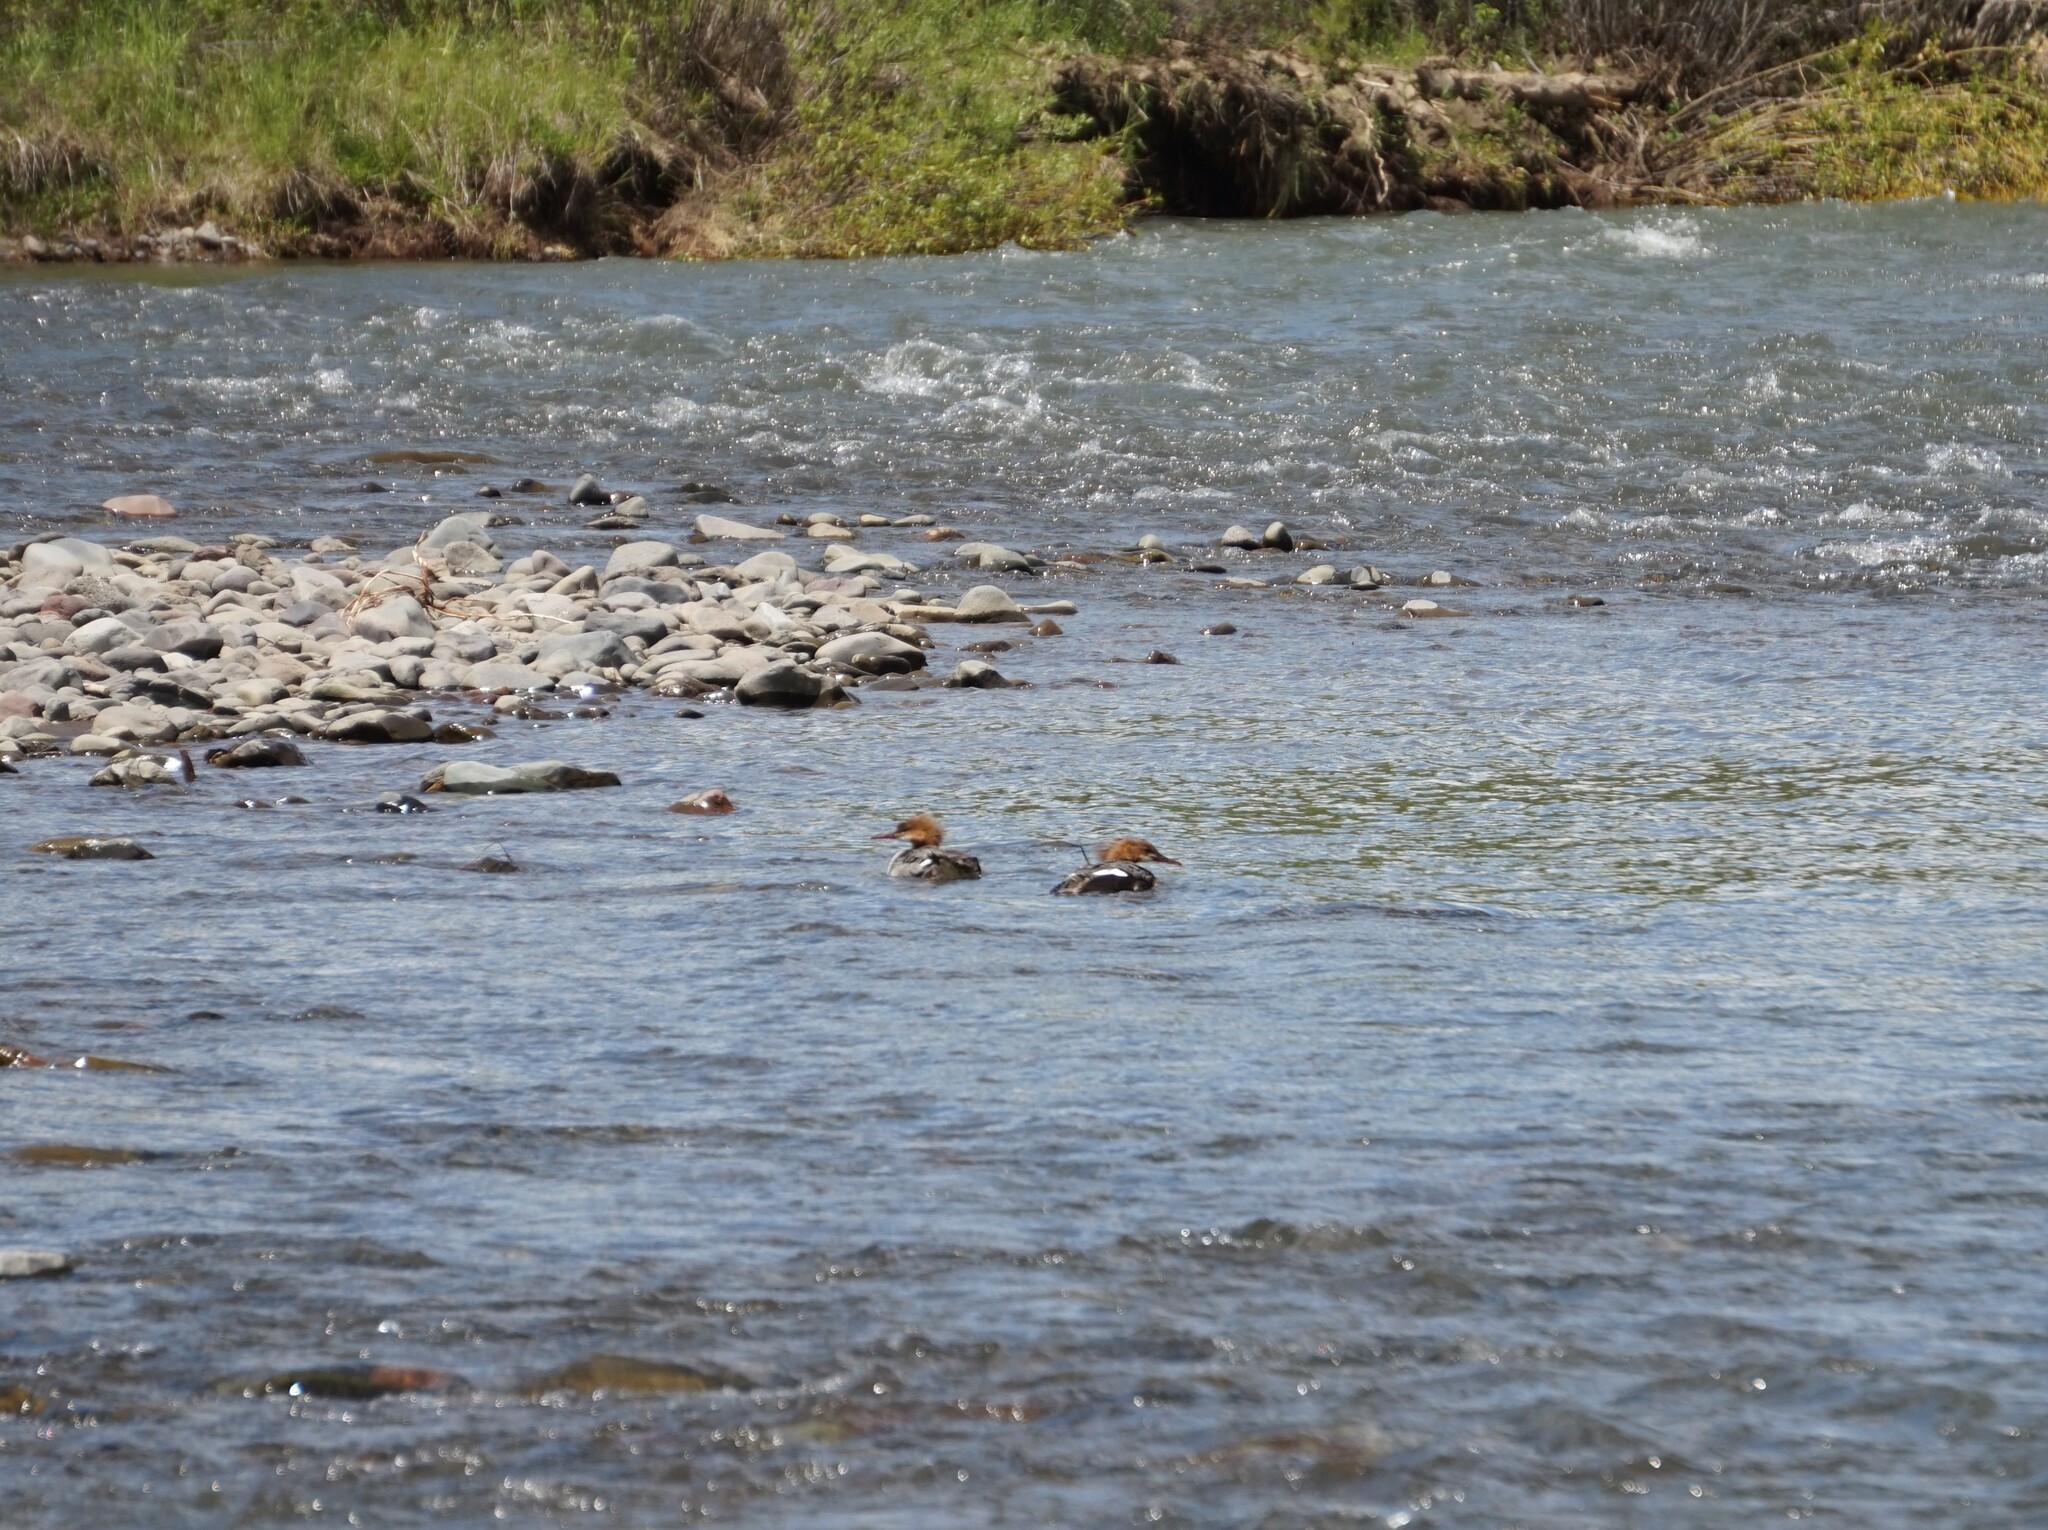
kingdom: Animalia
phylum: Chordata
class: Aves
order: Anseriformes
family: Anatidae
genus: Mergus
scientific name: Mergus merganser
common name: Common merganser
